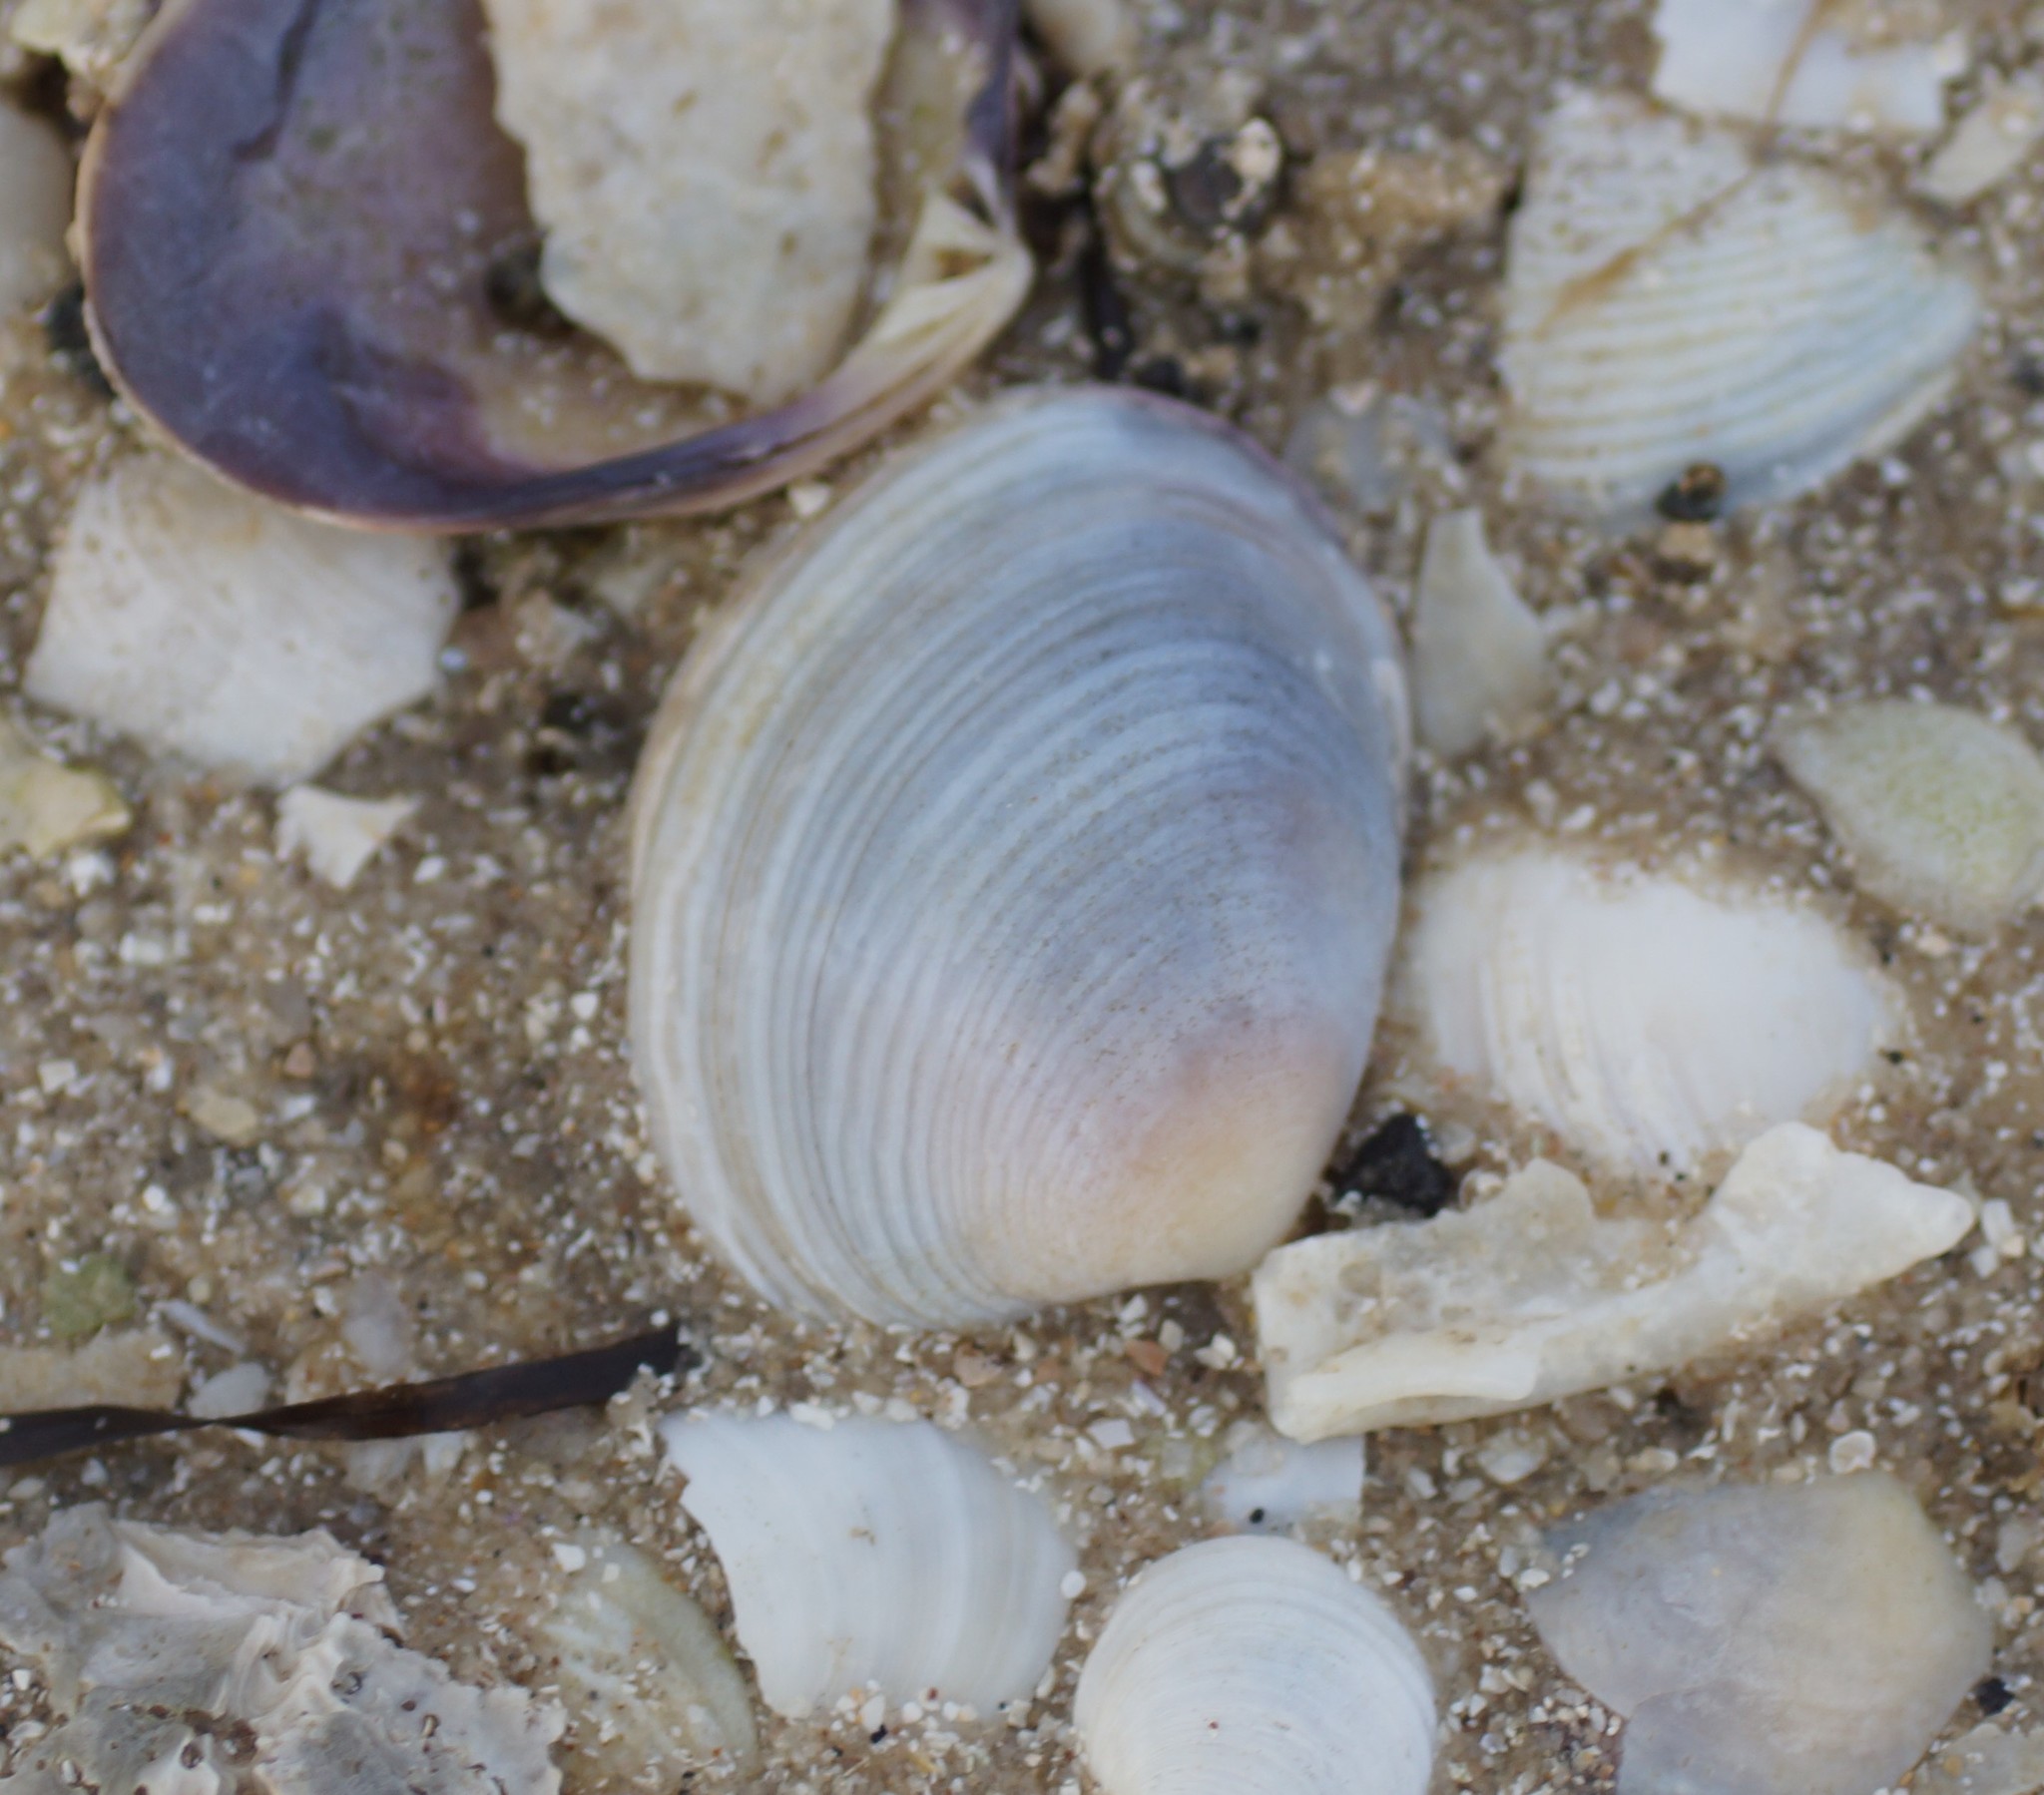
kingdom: Animalia
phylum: Mollusca
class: Bivalvia
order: Venerida
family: Veneridae
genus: Katelysia
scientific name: Katelysia scalarina
